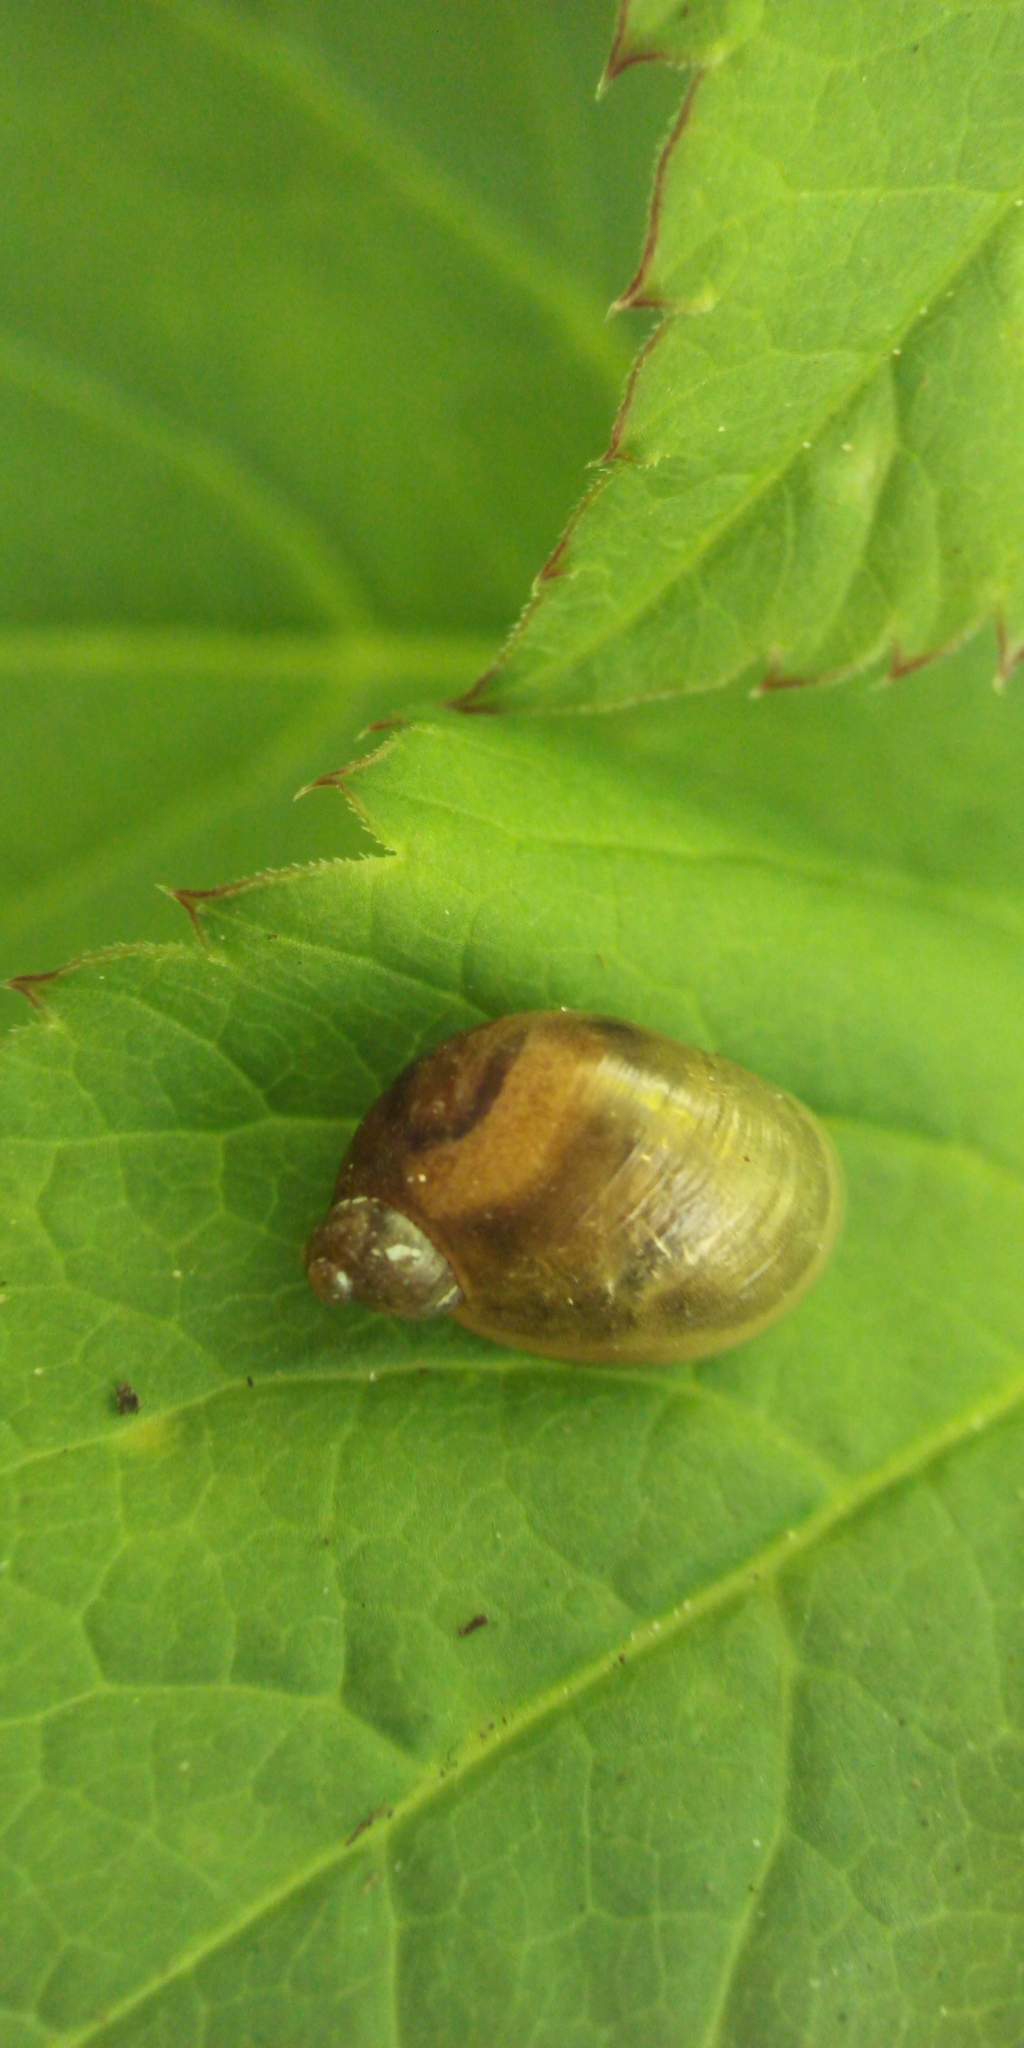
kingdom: Animalia
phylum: Mollusca
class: Gastropoda
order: Stylommatophora
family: Succineidae
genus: Succinea
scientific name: Succinea putris
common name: European ambersnail
